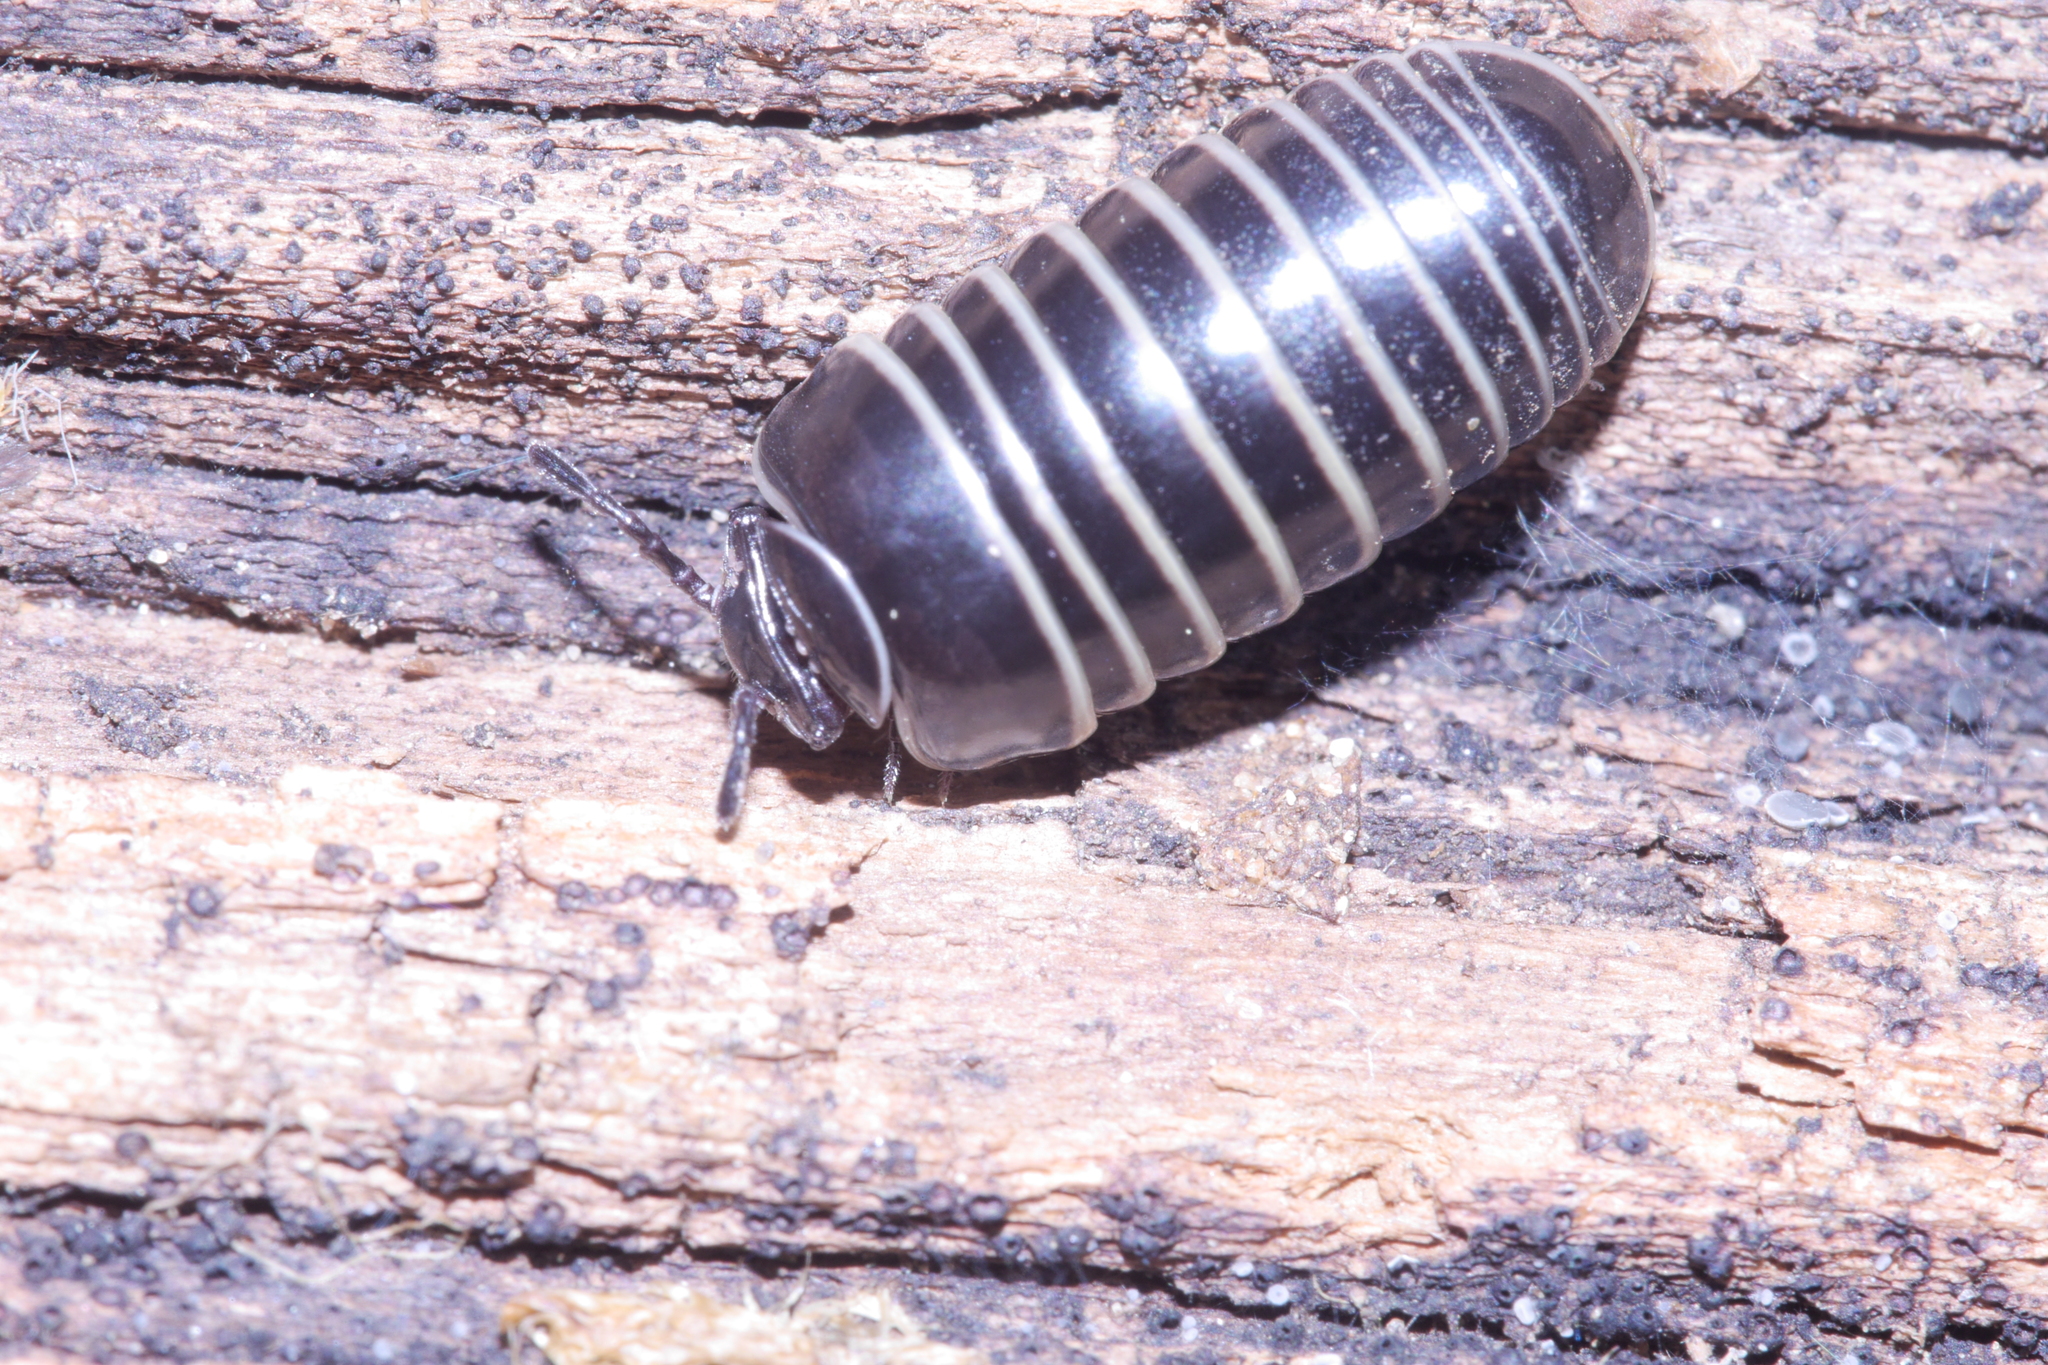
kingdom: Animalia
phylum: Arthropoda
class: Diplopoda
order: Glomerida
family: Glomeridae
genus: Glomeris
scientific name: Glomeris marginata
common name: Bordered pill millipede
